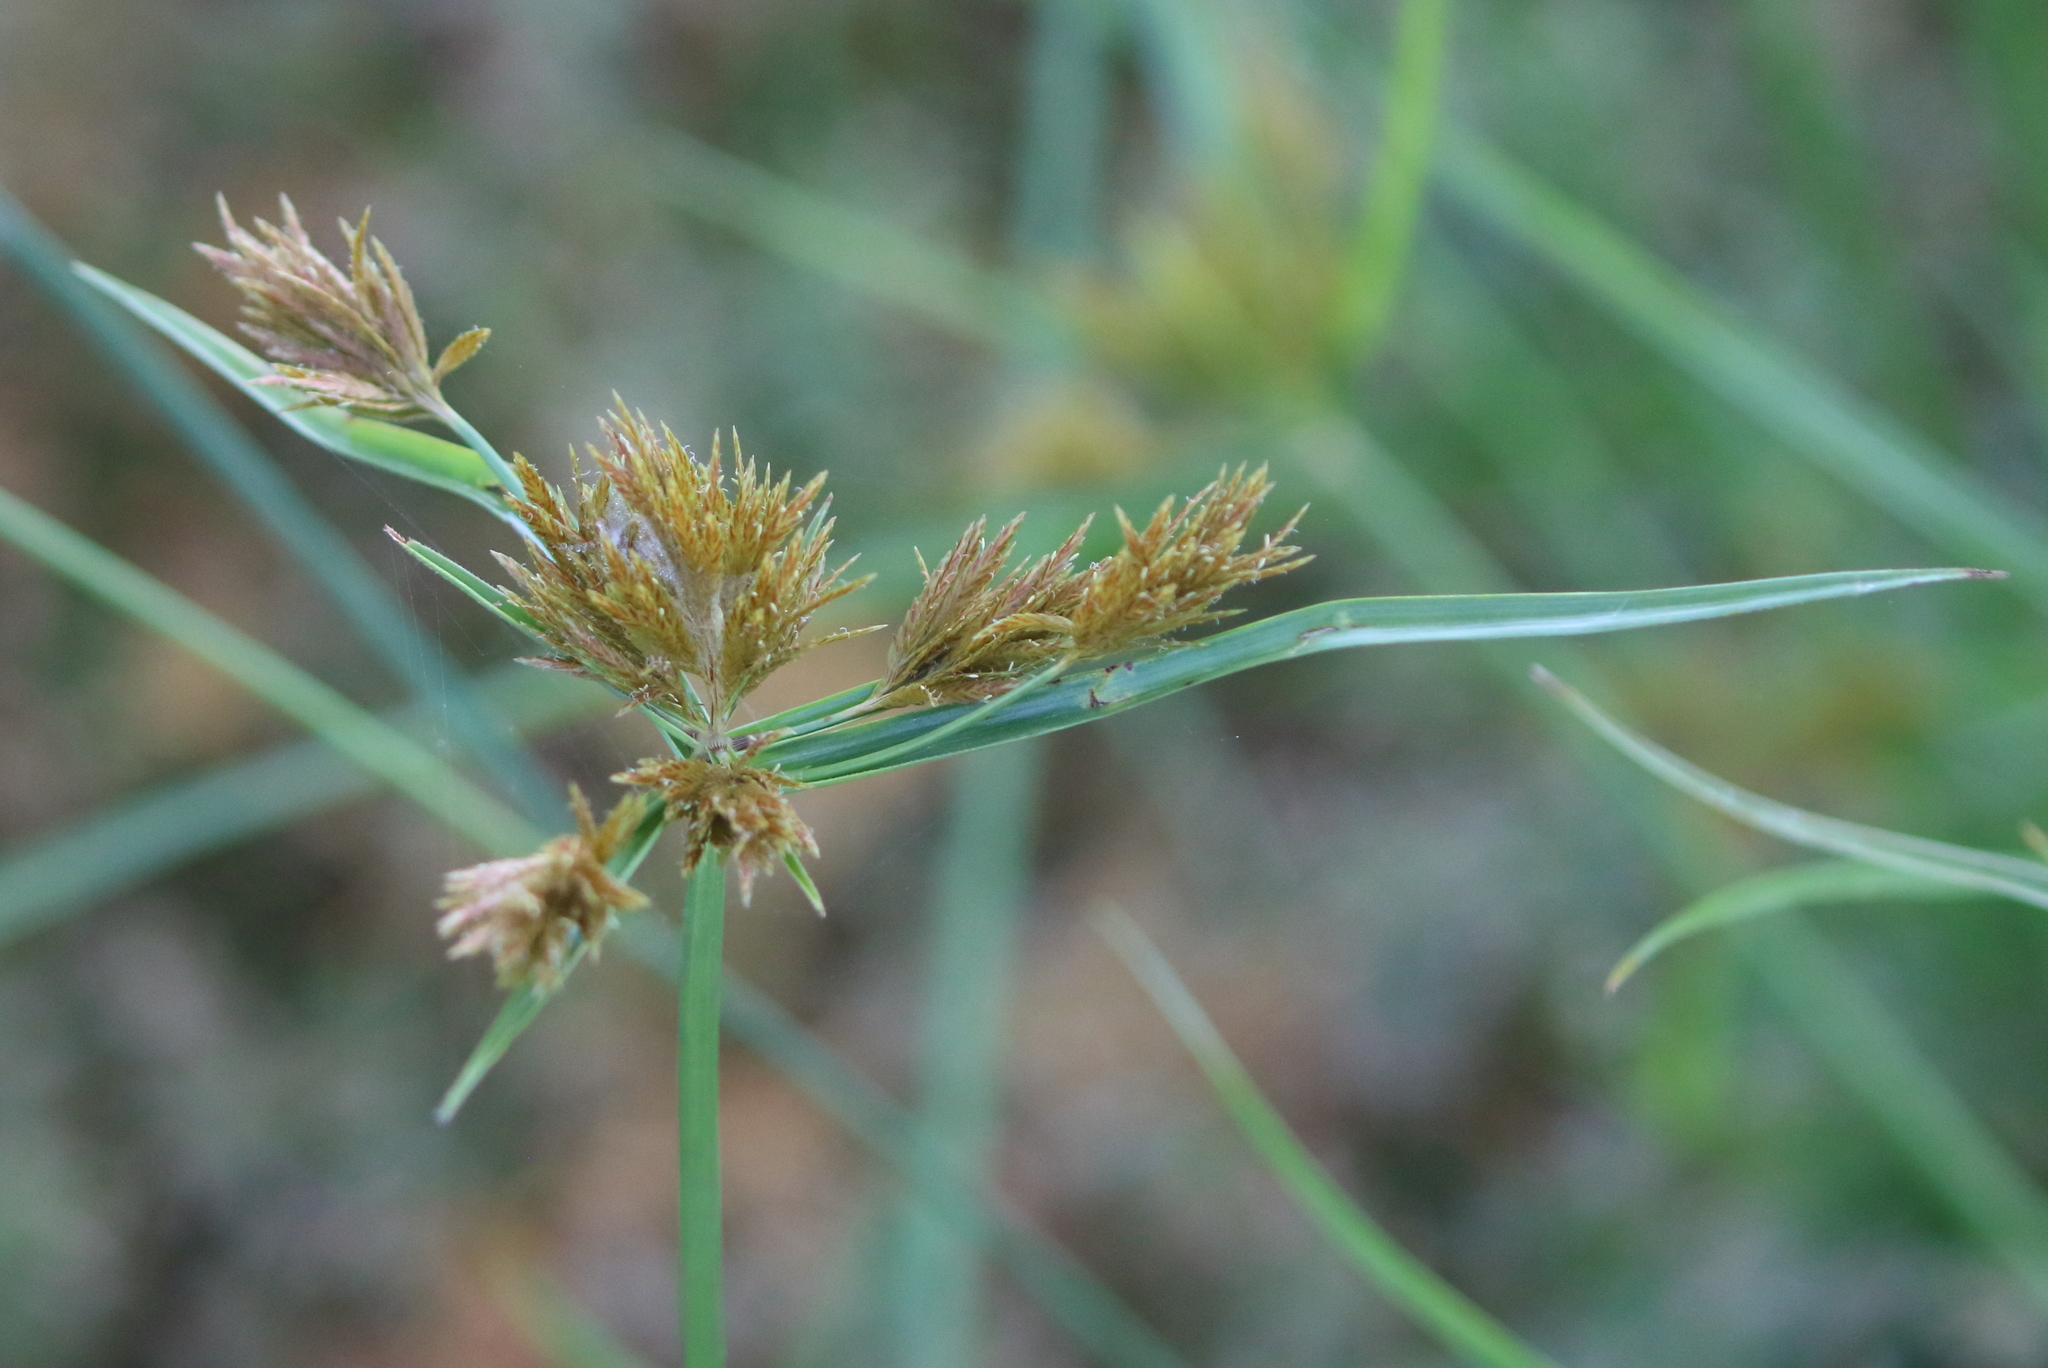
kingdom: Plantae
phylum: Tracheophyta
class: Liliopsida
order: Poales
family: Cyperaceae
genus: Cyperus
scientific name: Cyperus polystachyos
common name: Bunchy flat sedge
